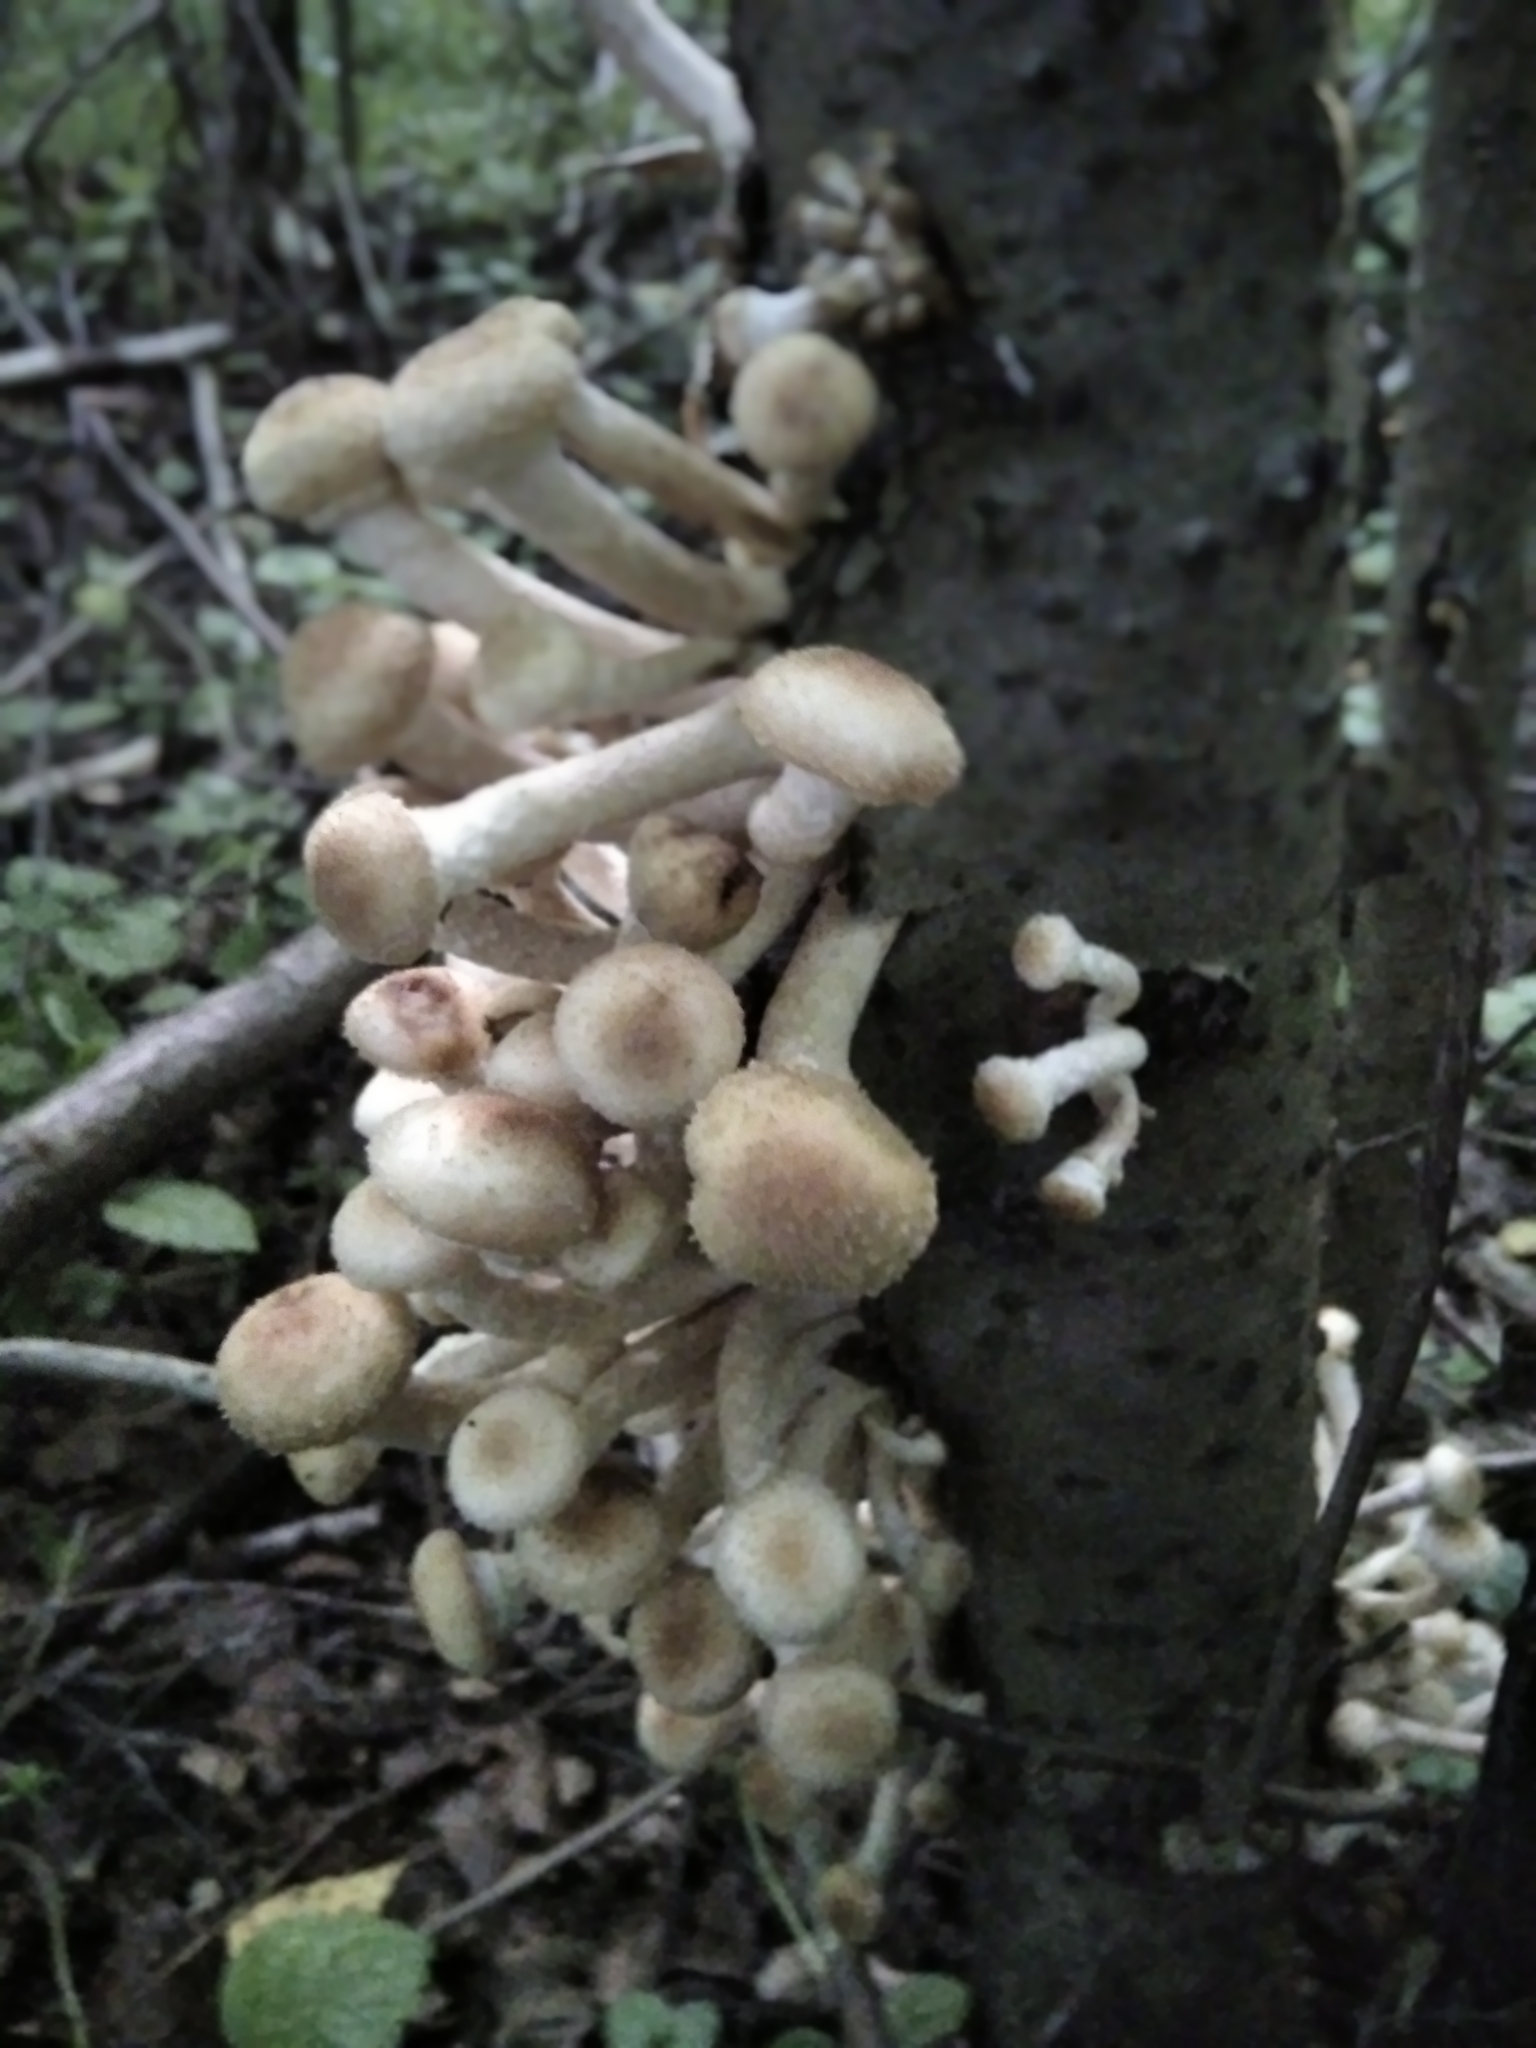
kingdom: Fungi
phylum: Basidiomycota
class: Agaricomycetes
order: Agaricales
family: Physalacriaceae
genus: Armillaria
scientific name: Armillaria borealis
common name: Northern honey fungus
